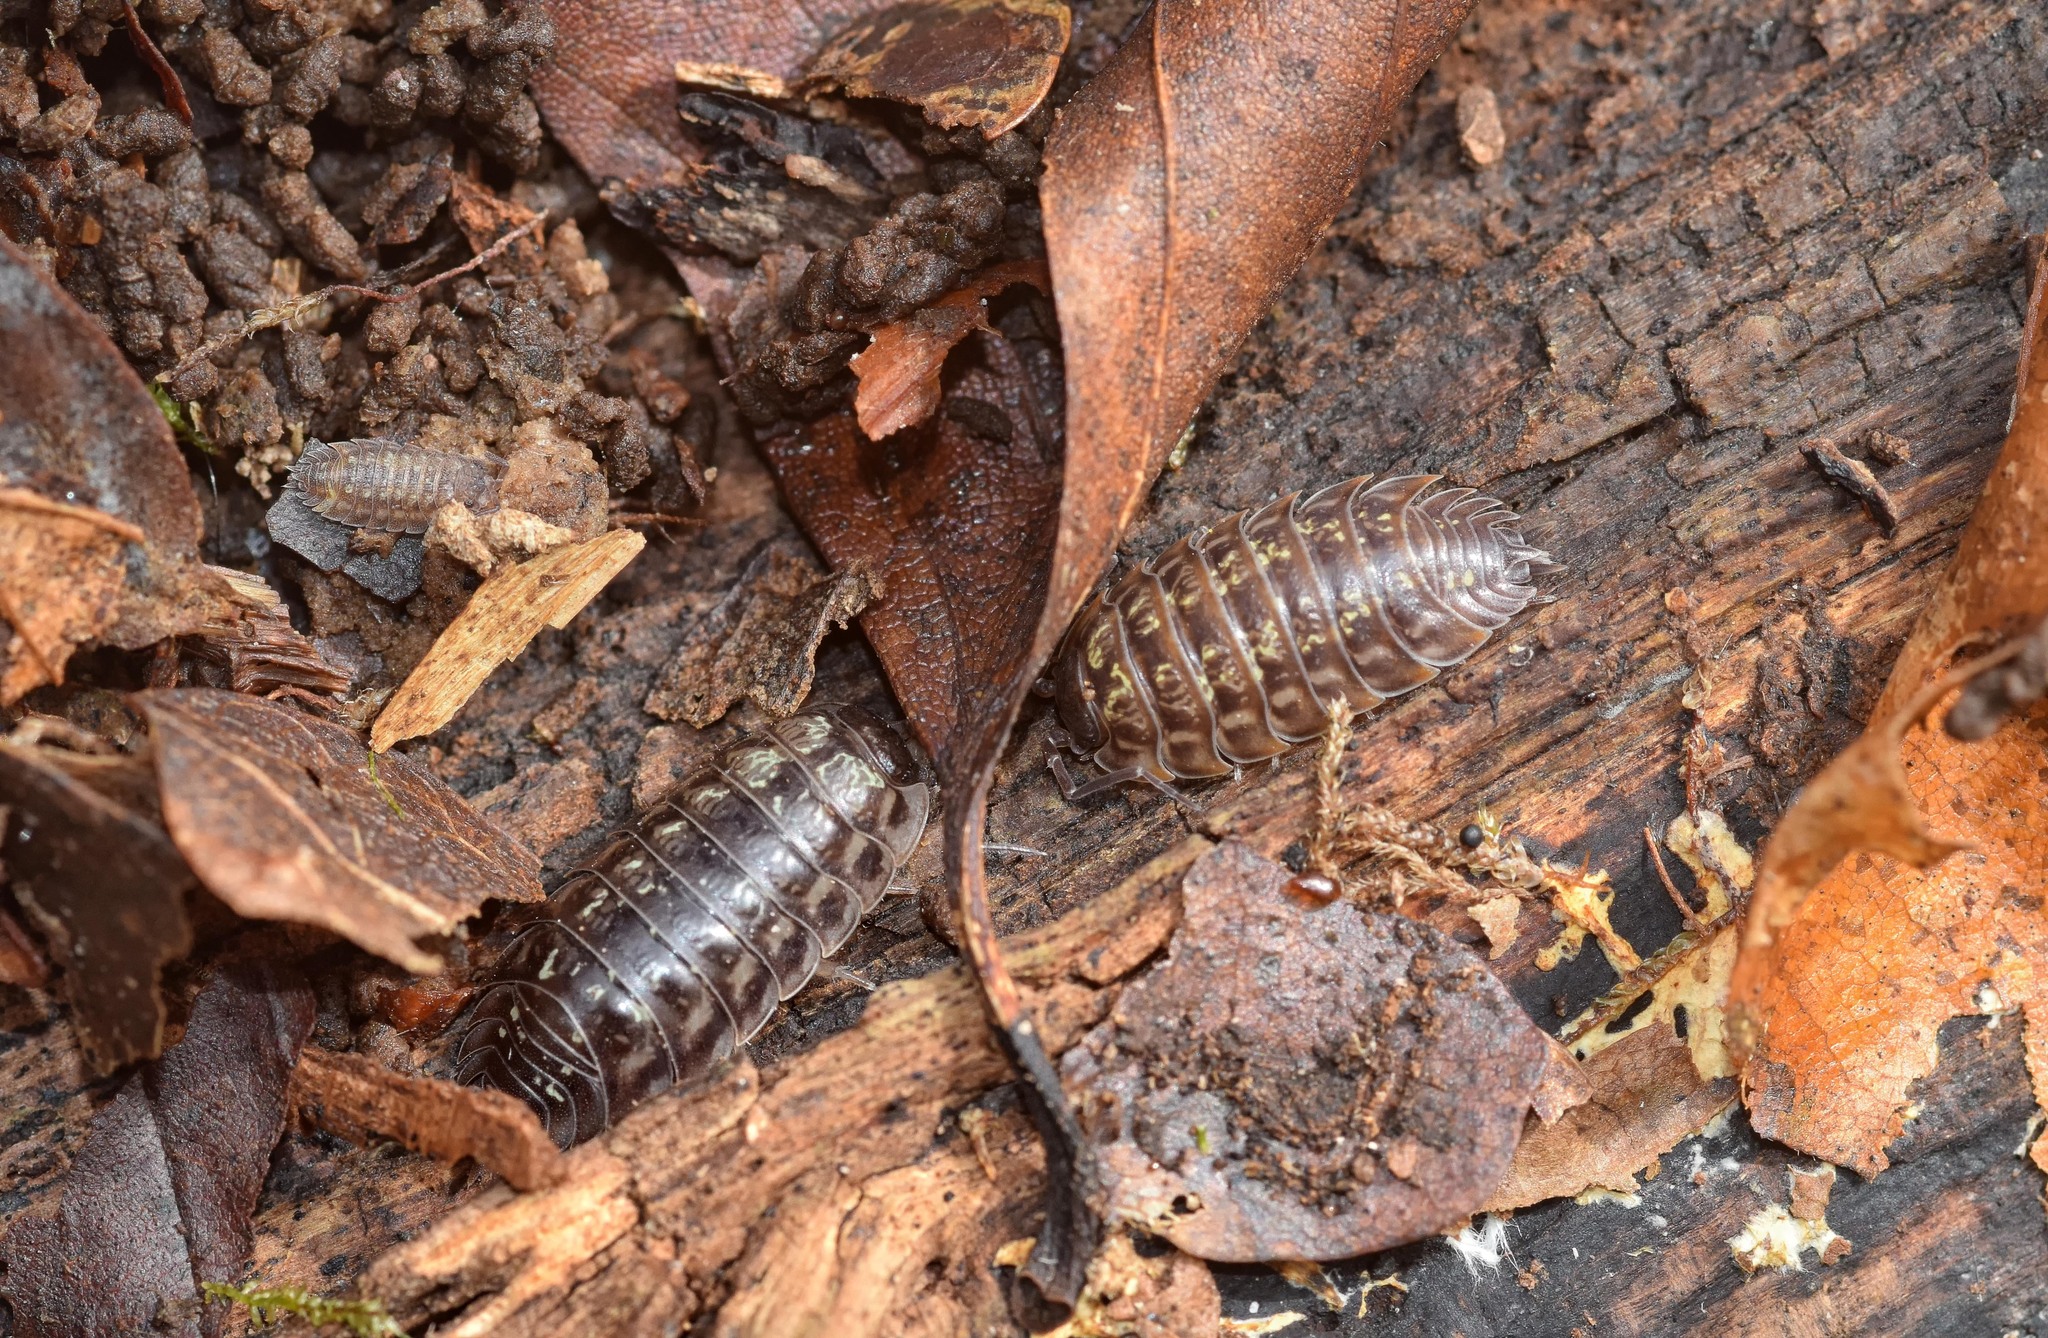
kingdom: Animalia
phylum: Arthropoda
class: Malacostraca
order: Isopoda
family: Oniscidae
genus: Oniscus
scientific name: Oniscus asellus
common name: Common shiny woodlouse
